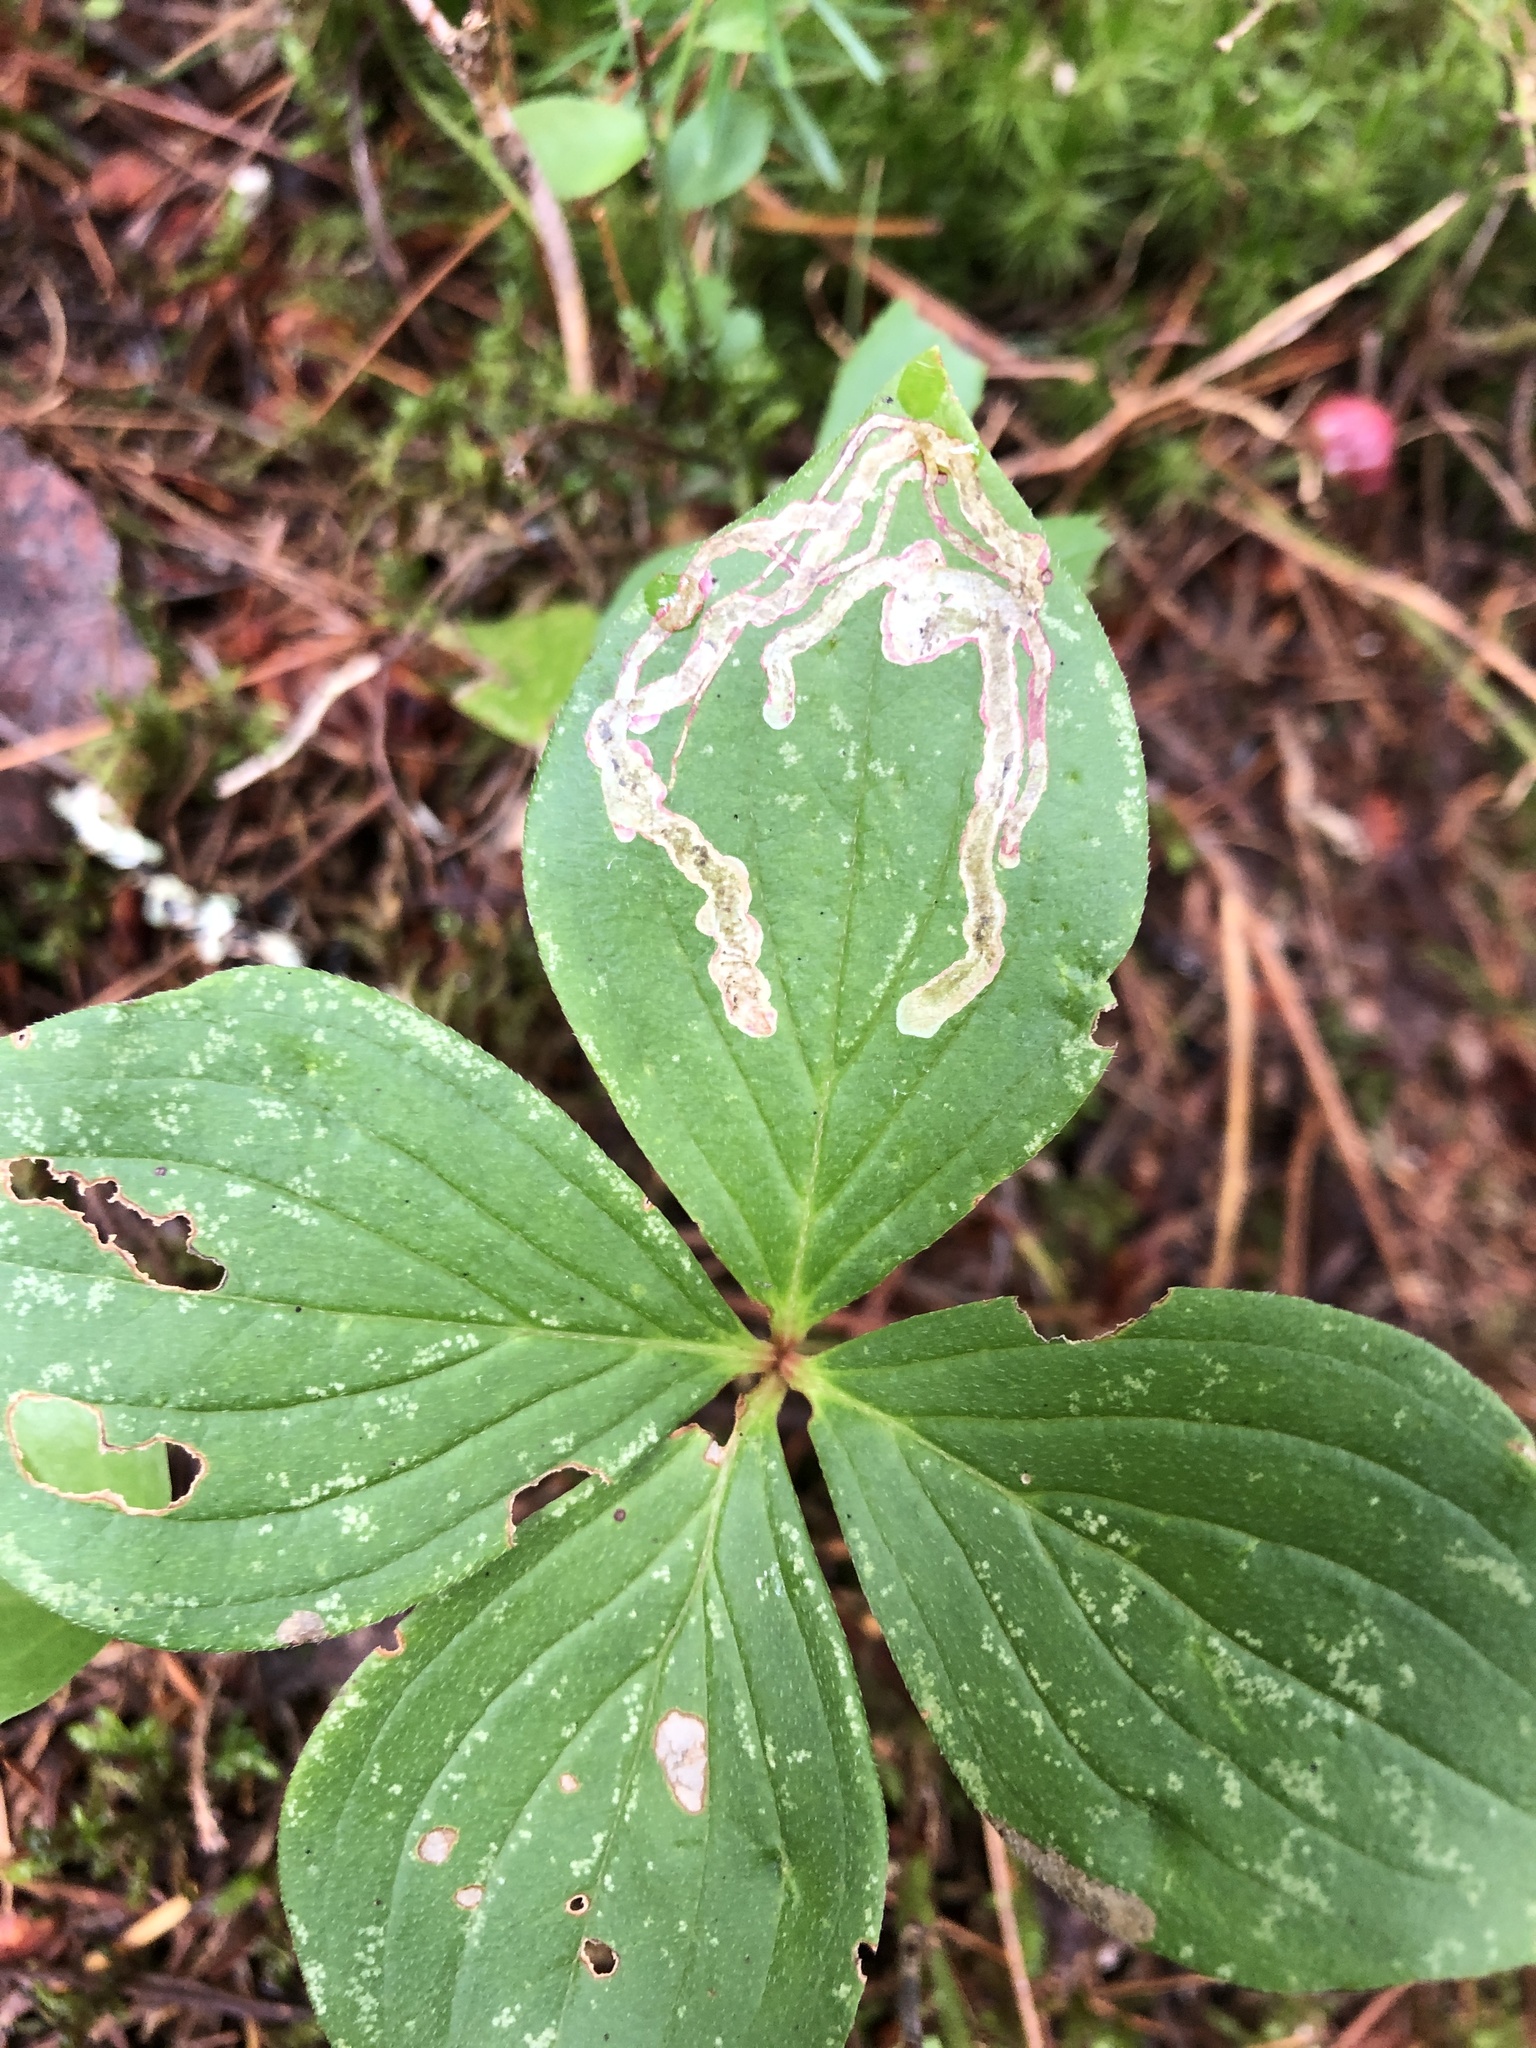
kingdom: Animalia
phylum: Arthropoda
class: Insecta
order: Diptera
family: Agromyzidae
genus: Phytomyza
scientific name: Phytomyza agromyzina
